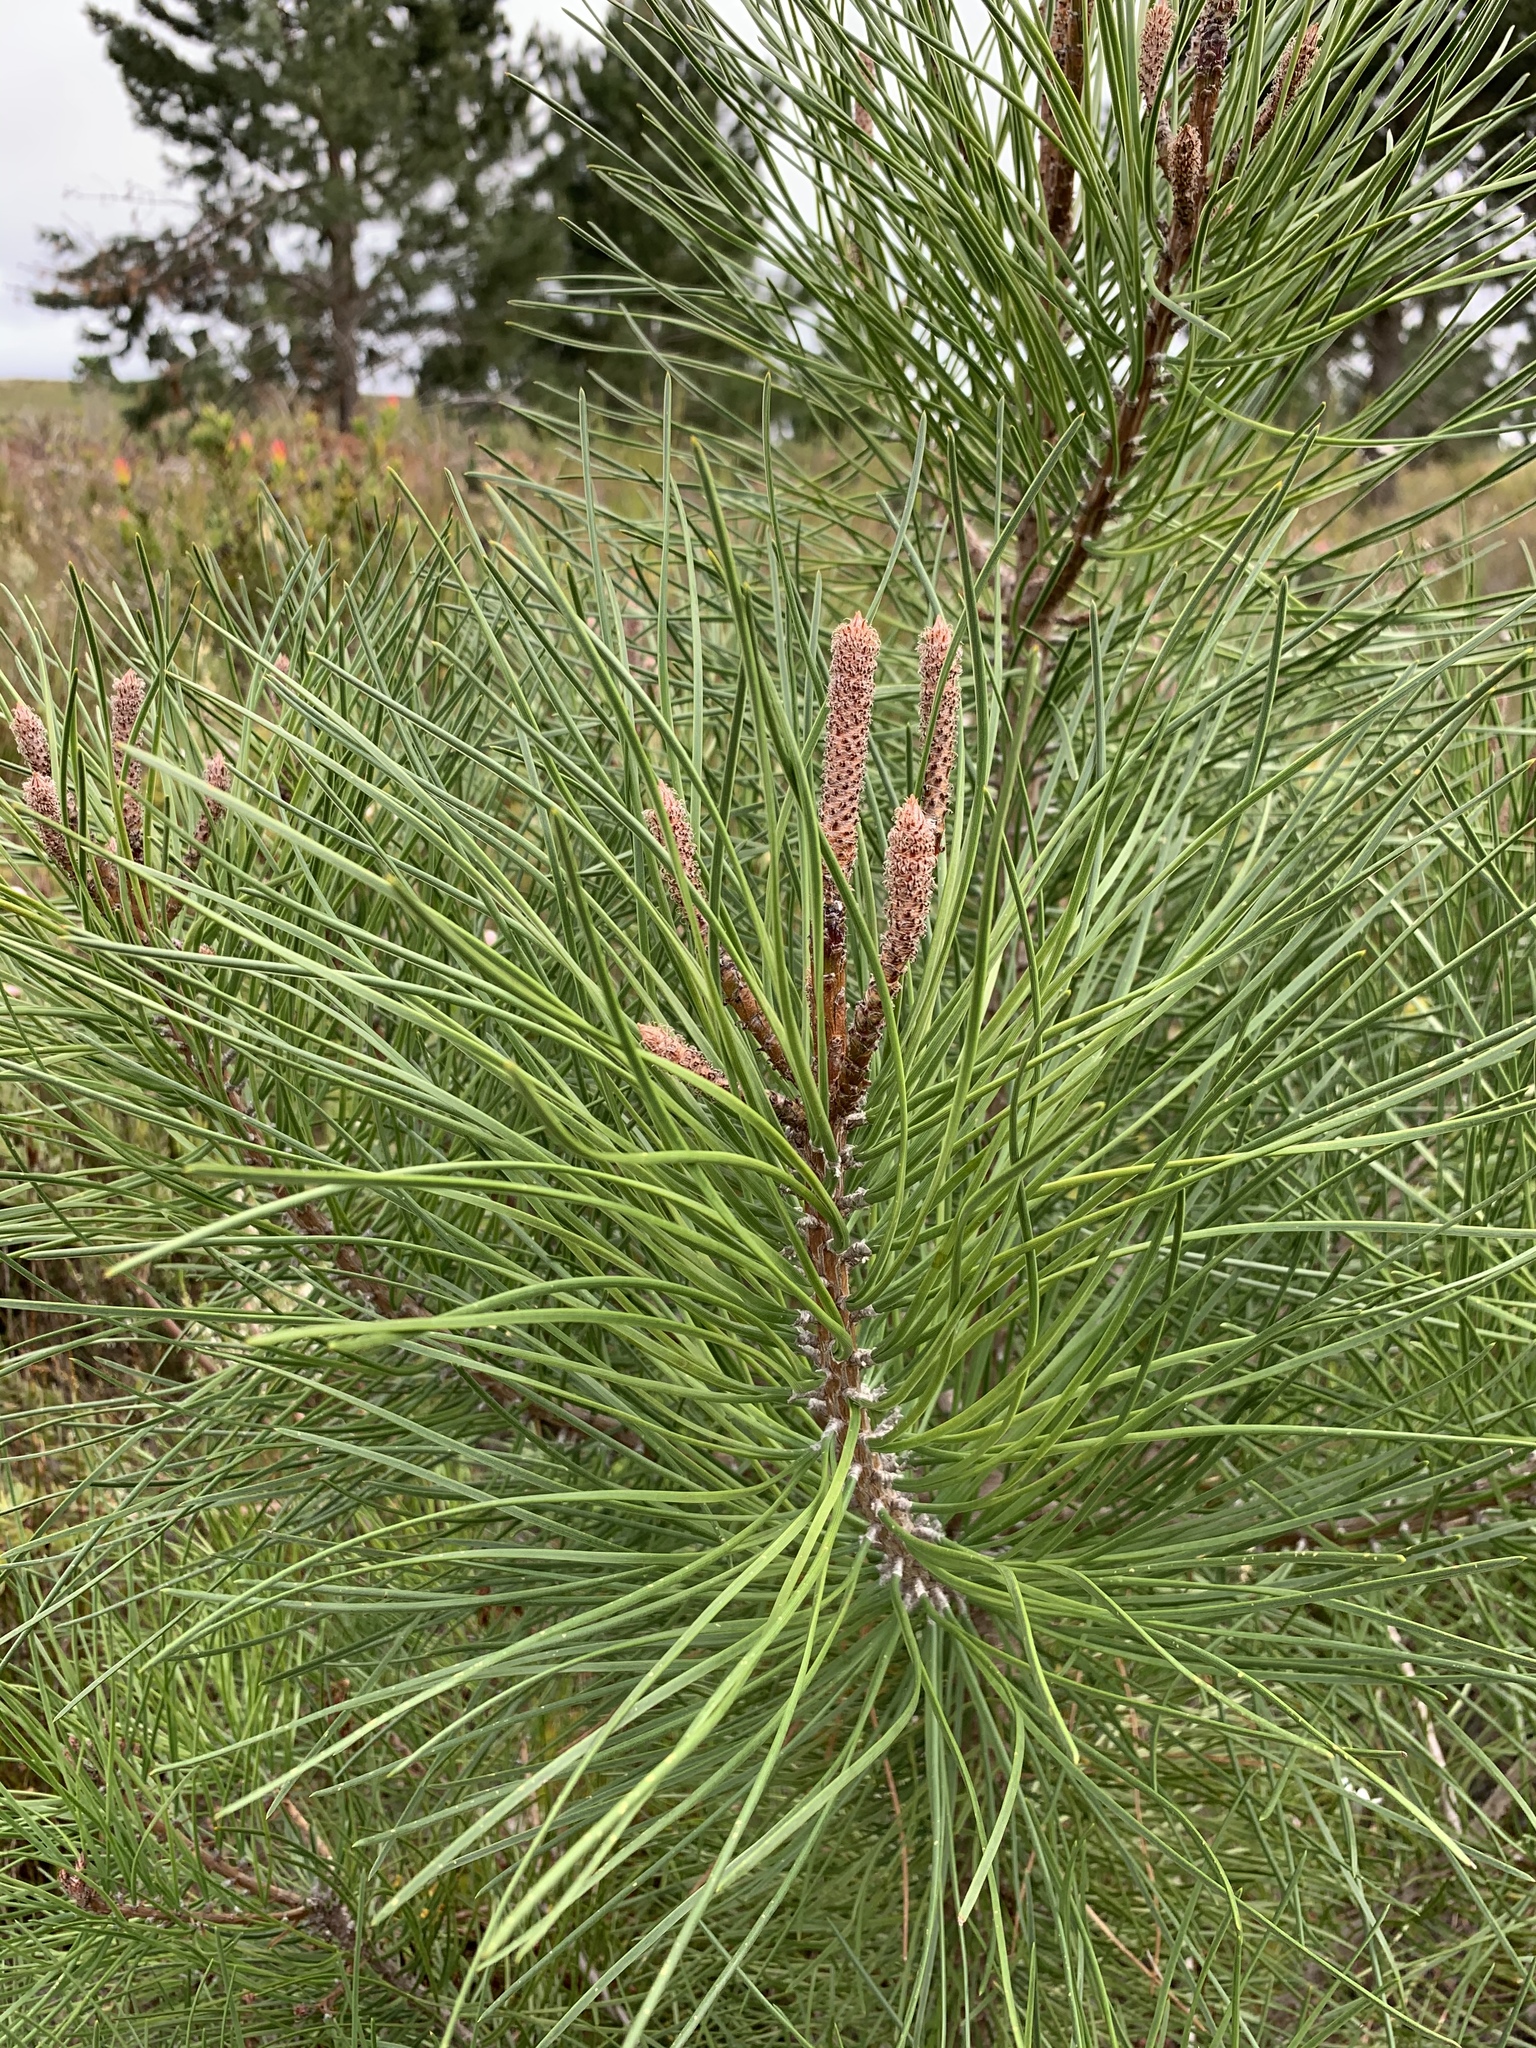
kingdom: Plantae
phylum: Tracheophyta
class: Pinopsida
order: Pinales
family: Pinaceae
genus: Pinus
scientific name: Pinus pinaster
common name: Maritime pine
